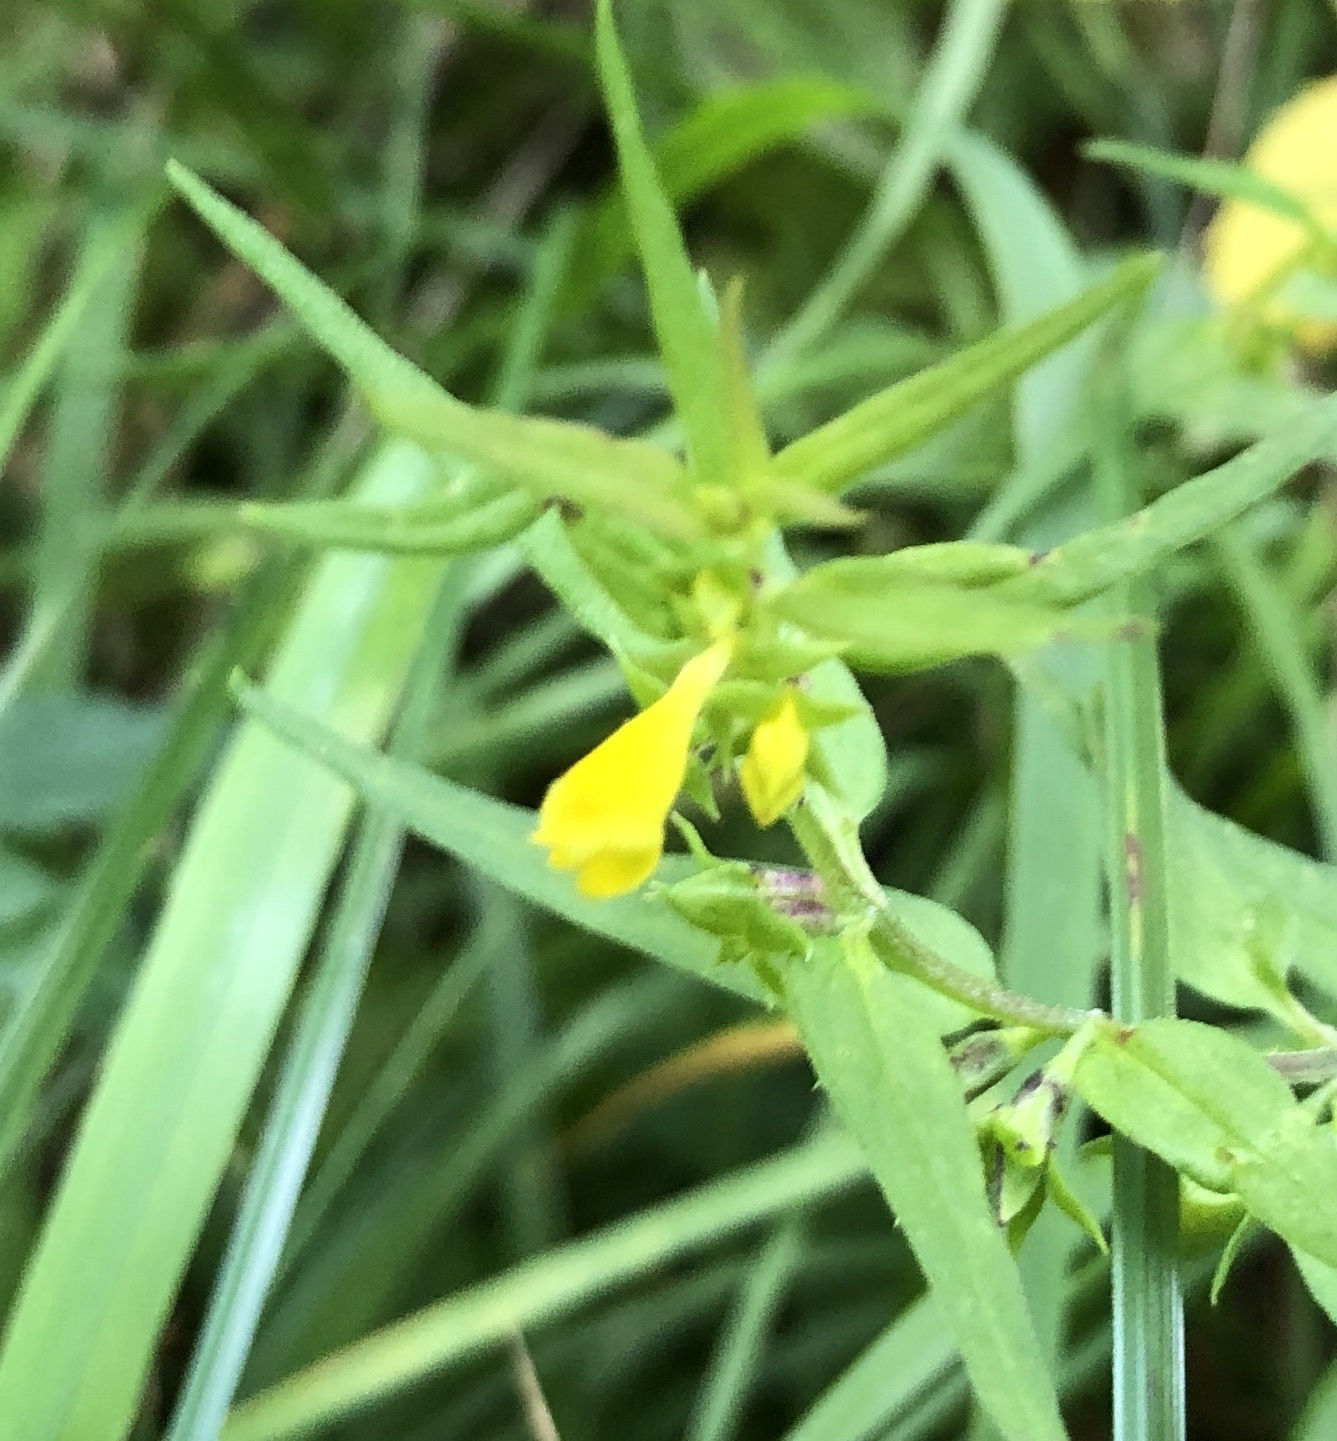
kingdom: Plantae
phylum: Tracheophyta
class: Magnoliopsida
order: Lamiales
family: Orobanchaceae
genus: Melampyrum
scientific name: Melampyrum sylvaticum
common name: Small cow-wheat
